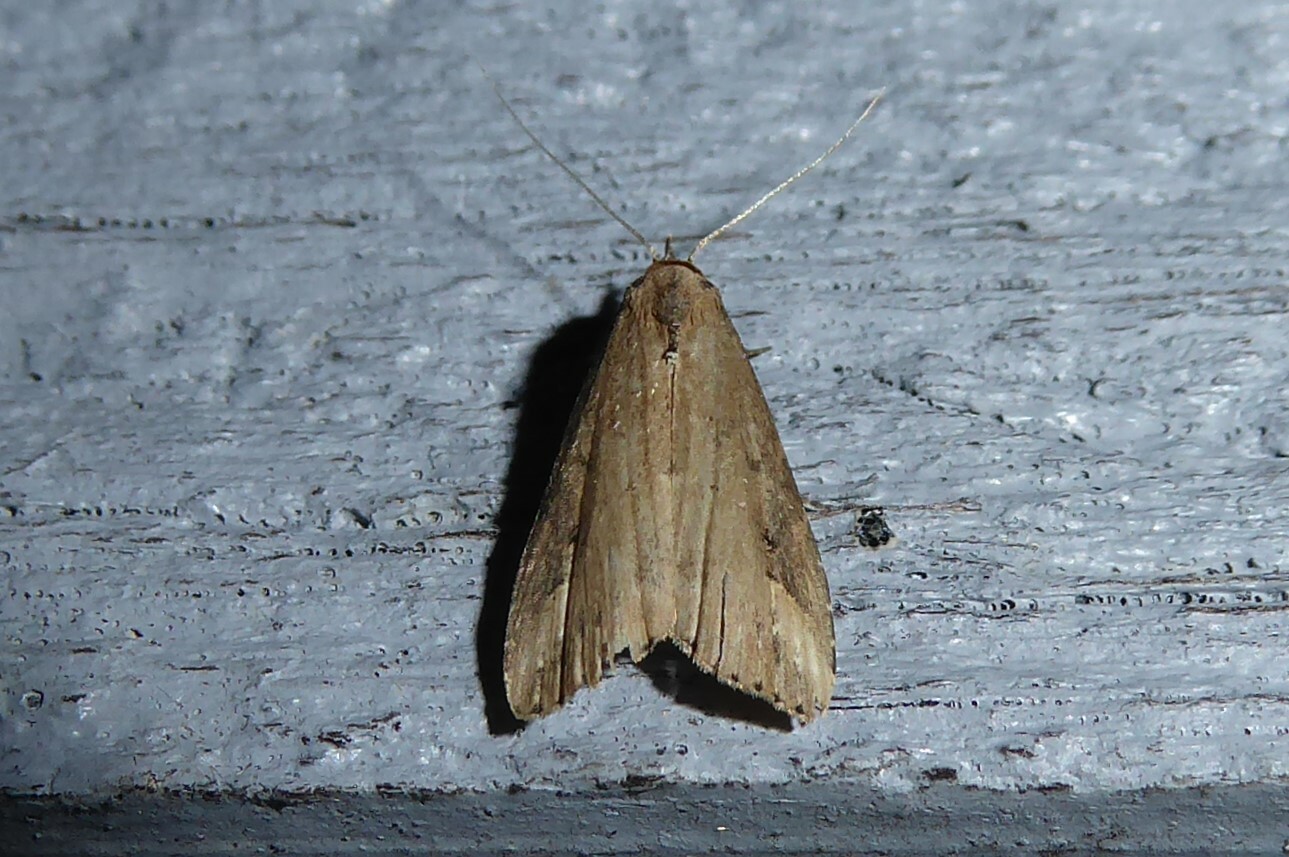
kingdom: Animalia
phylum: Arthropoda
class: Insecta
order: Lepidoptera
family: Erebidae
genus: Schrankia
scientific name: Schrankia costaestrigalis
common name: Pinion-streaked snout
